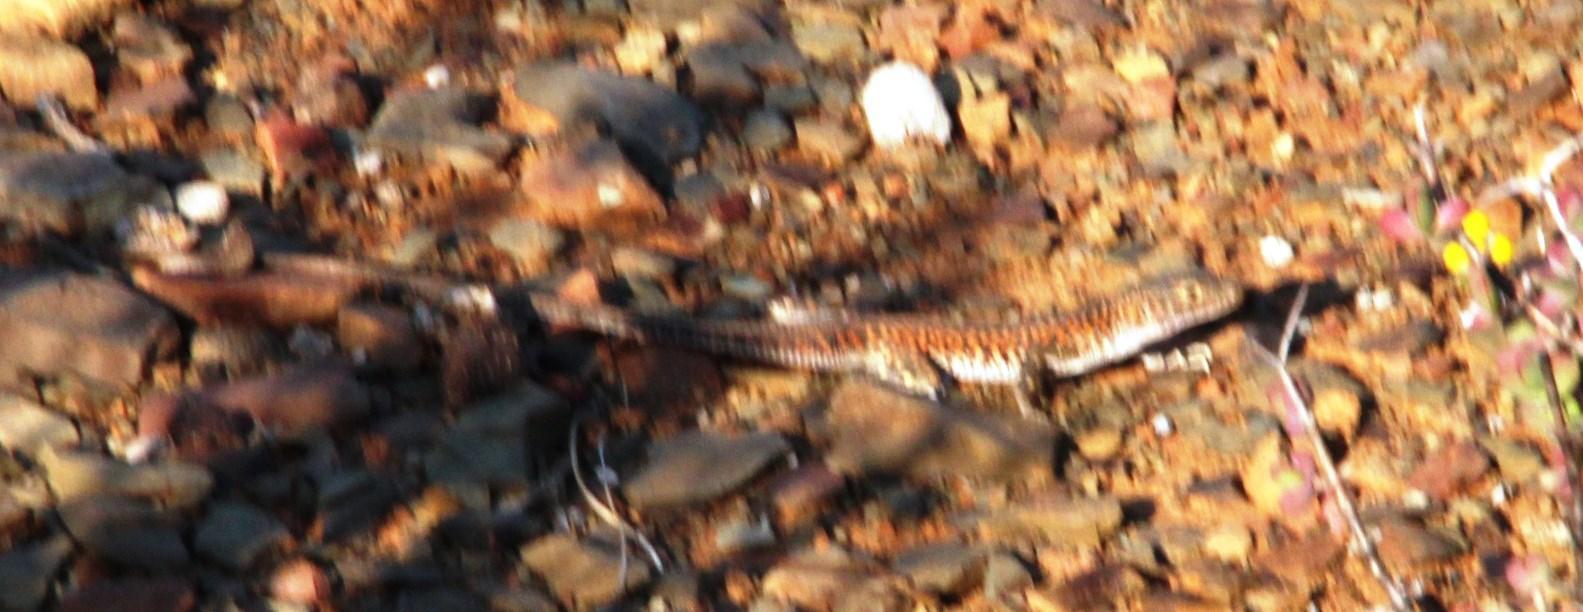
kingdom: Animalia
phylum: Chordata
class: Squamata
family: Lacertidae
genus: Pedioplanis
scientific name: Pedioplanis laticeps
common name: Karoo sand lizard
